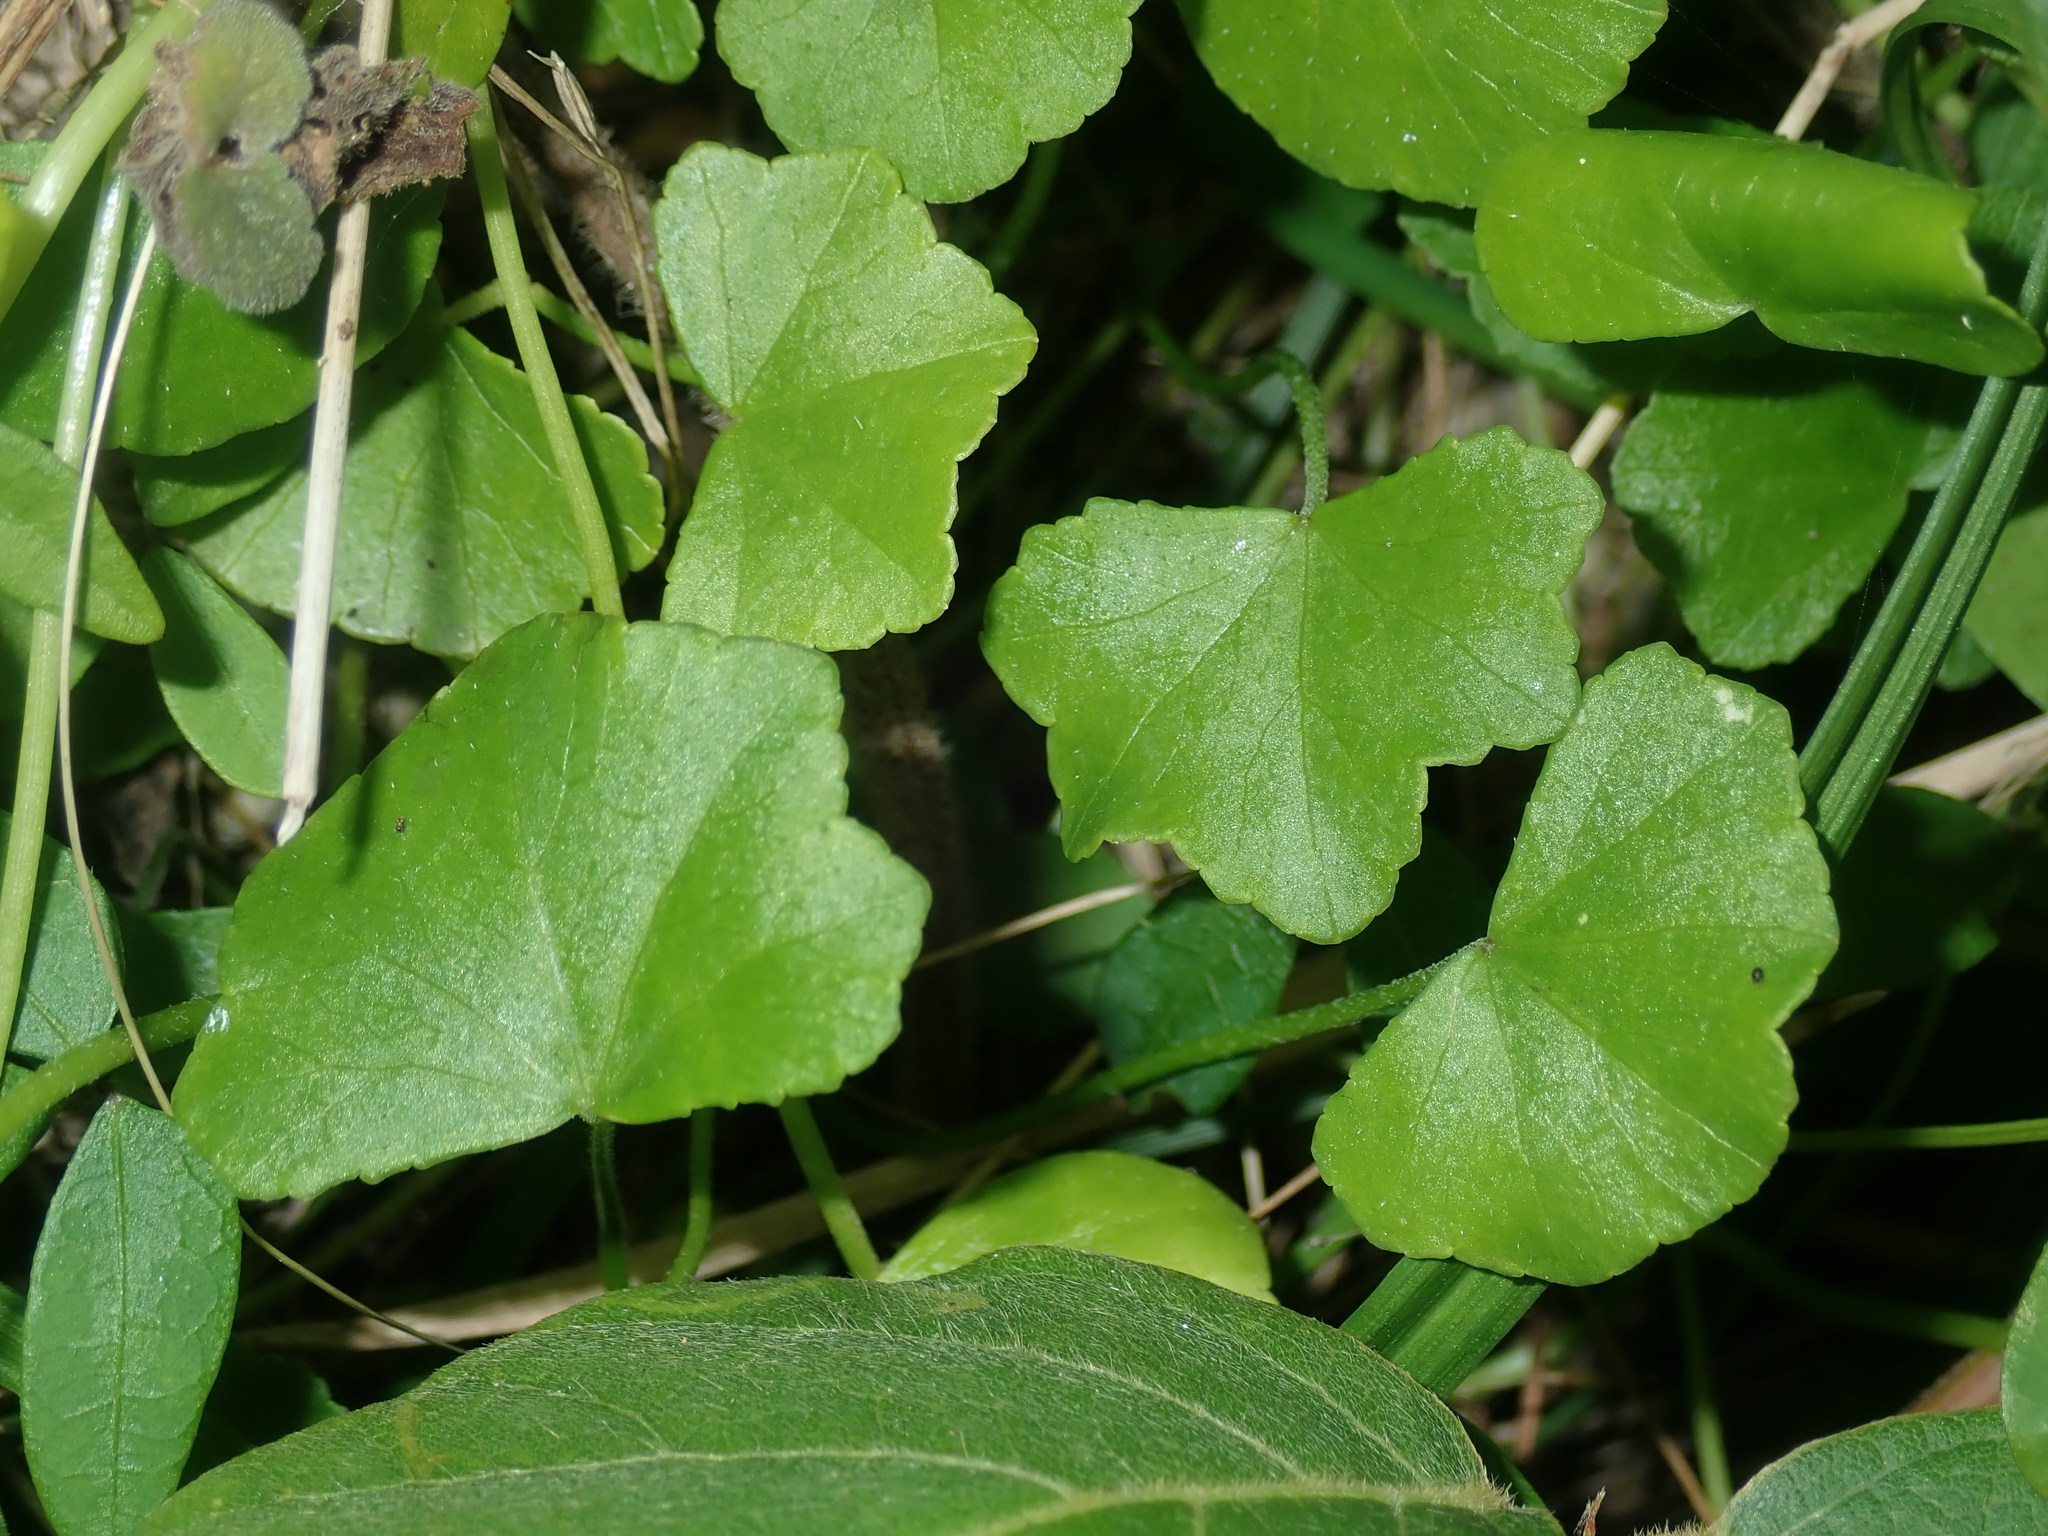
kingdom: Plantae
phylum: Tracheophyta
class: Magnoliopsida
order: Apiales
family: Araliaceae
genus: Hydrocotyle
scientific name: Hydrocotyle hirta
